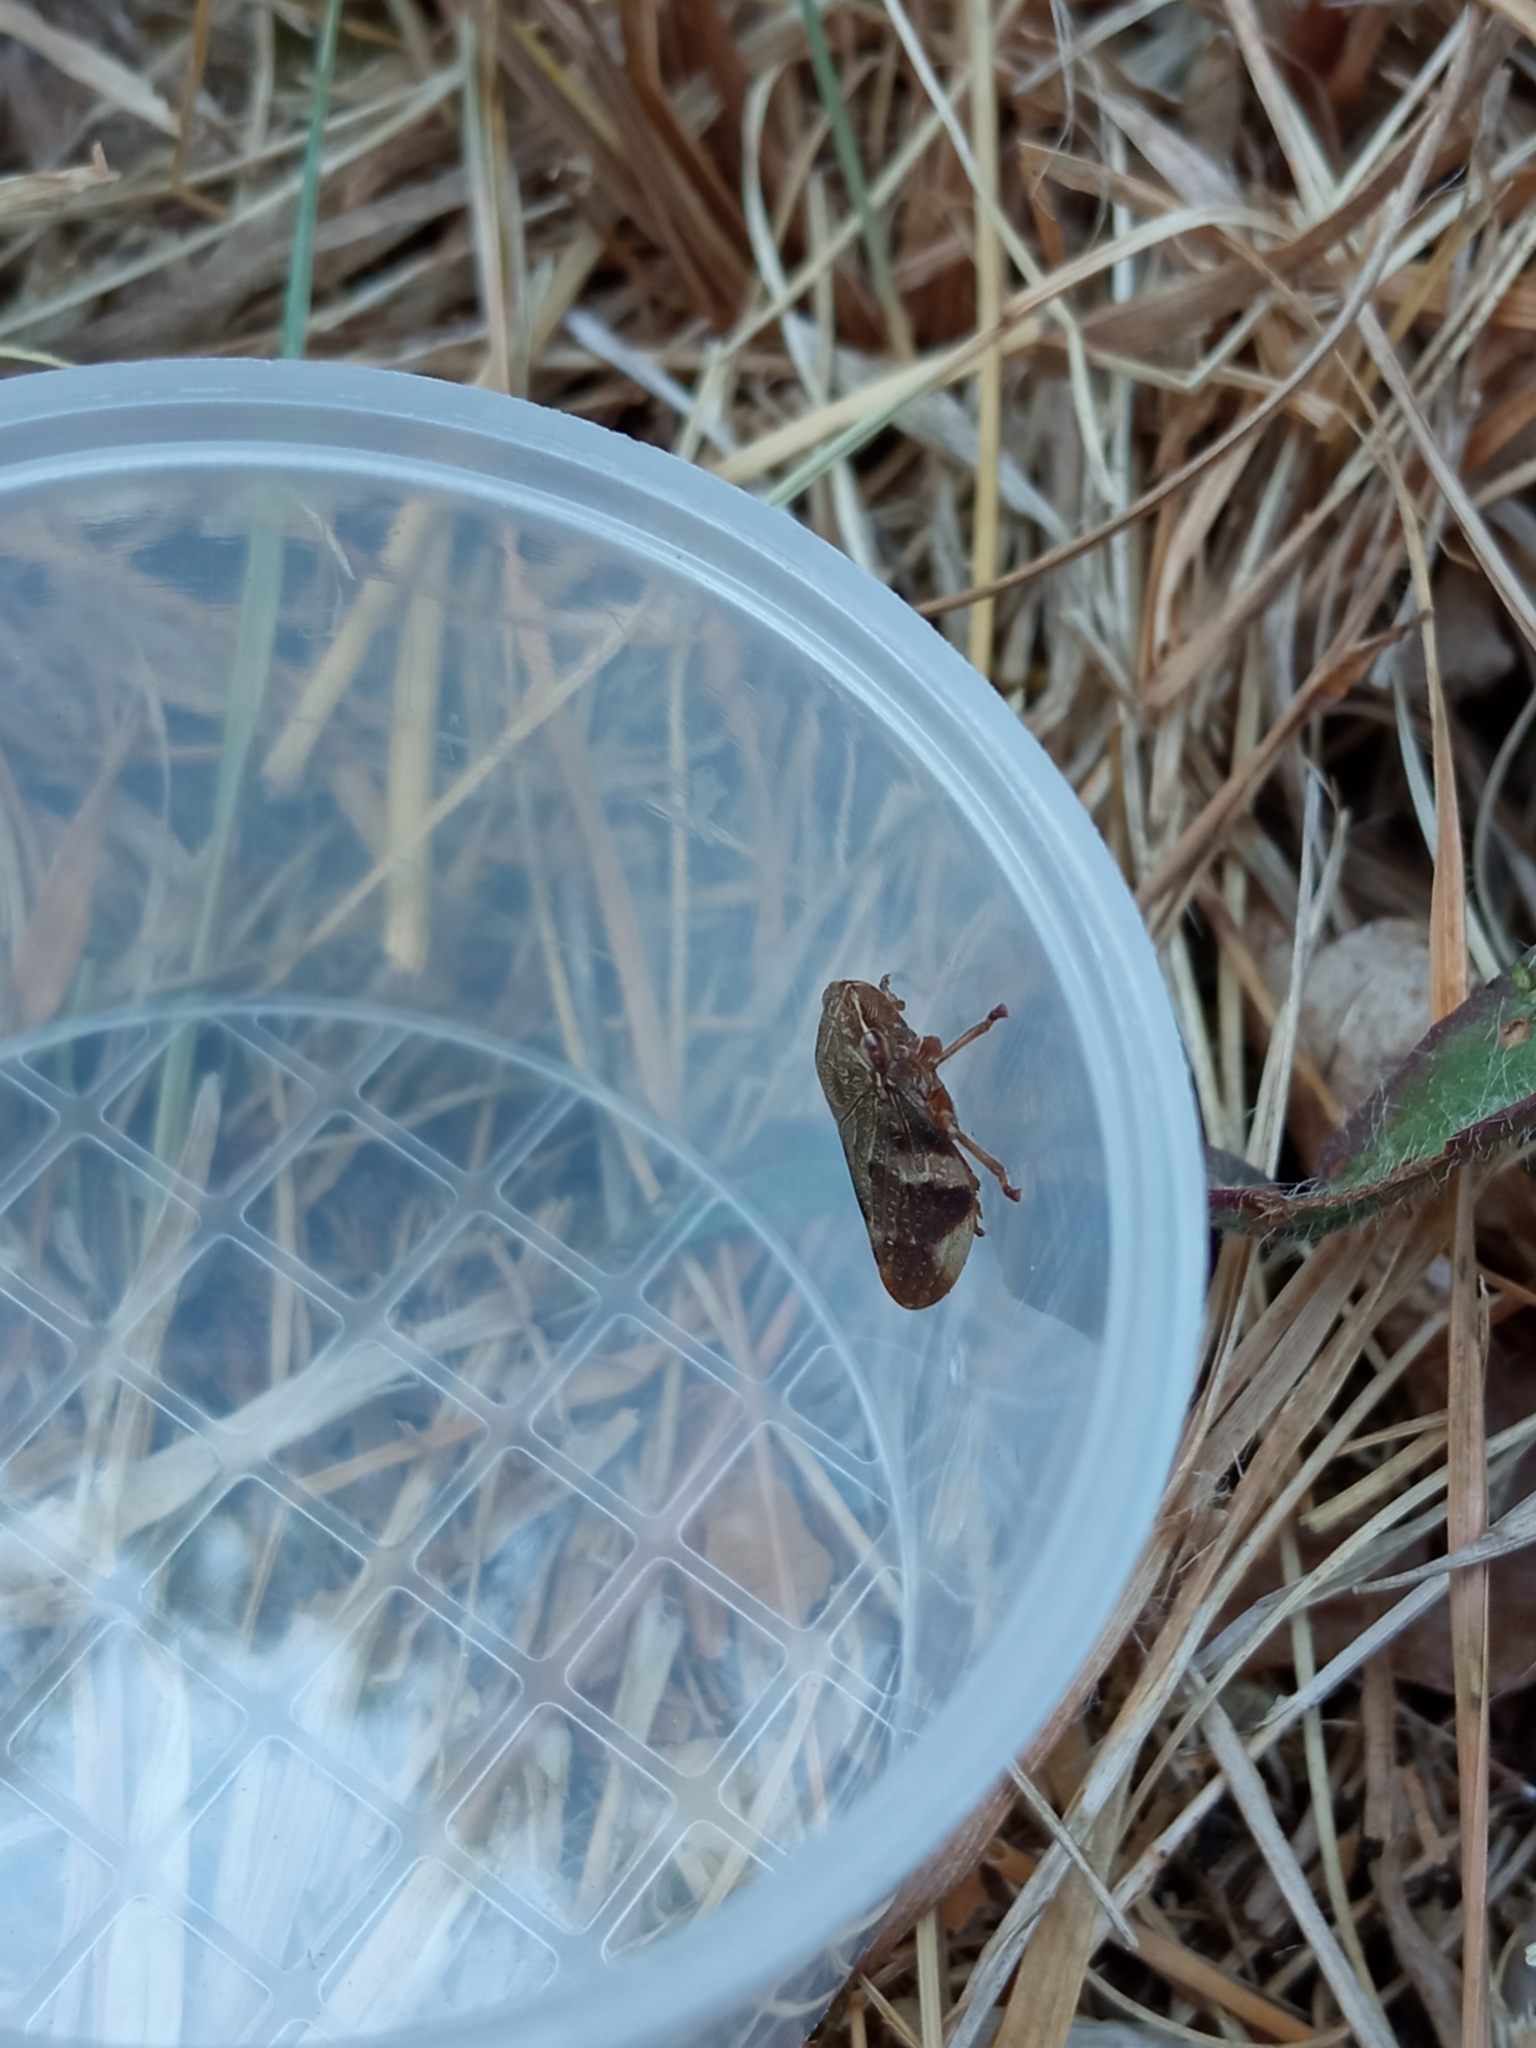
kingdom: Animalia
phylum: Arthropoda
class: Insecta
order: Hemiptera
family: Aphrophoridae
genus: Aphrophora
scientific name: Aphrophora alni
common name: European alder spittlebug
